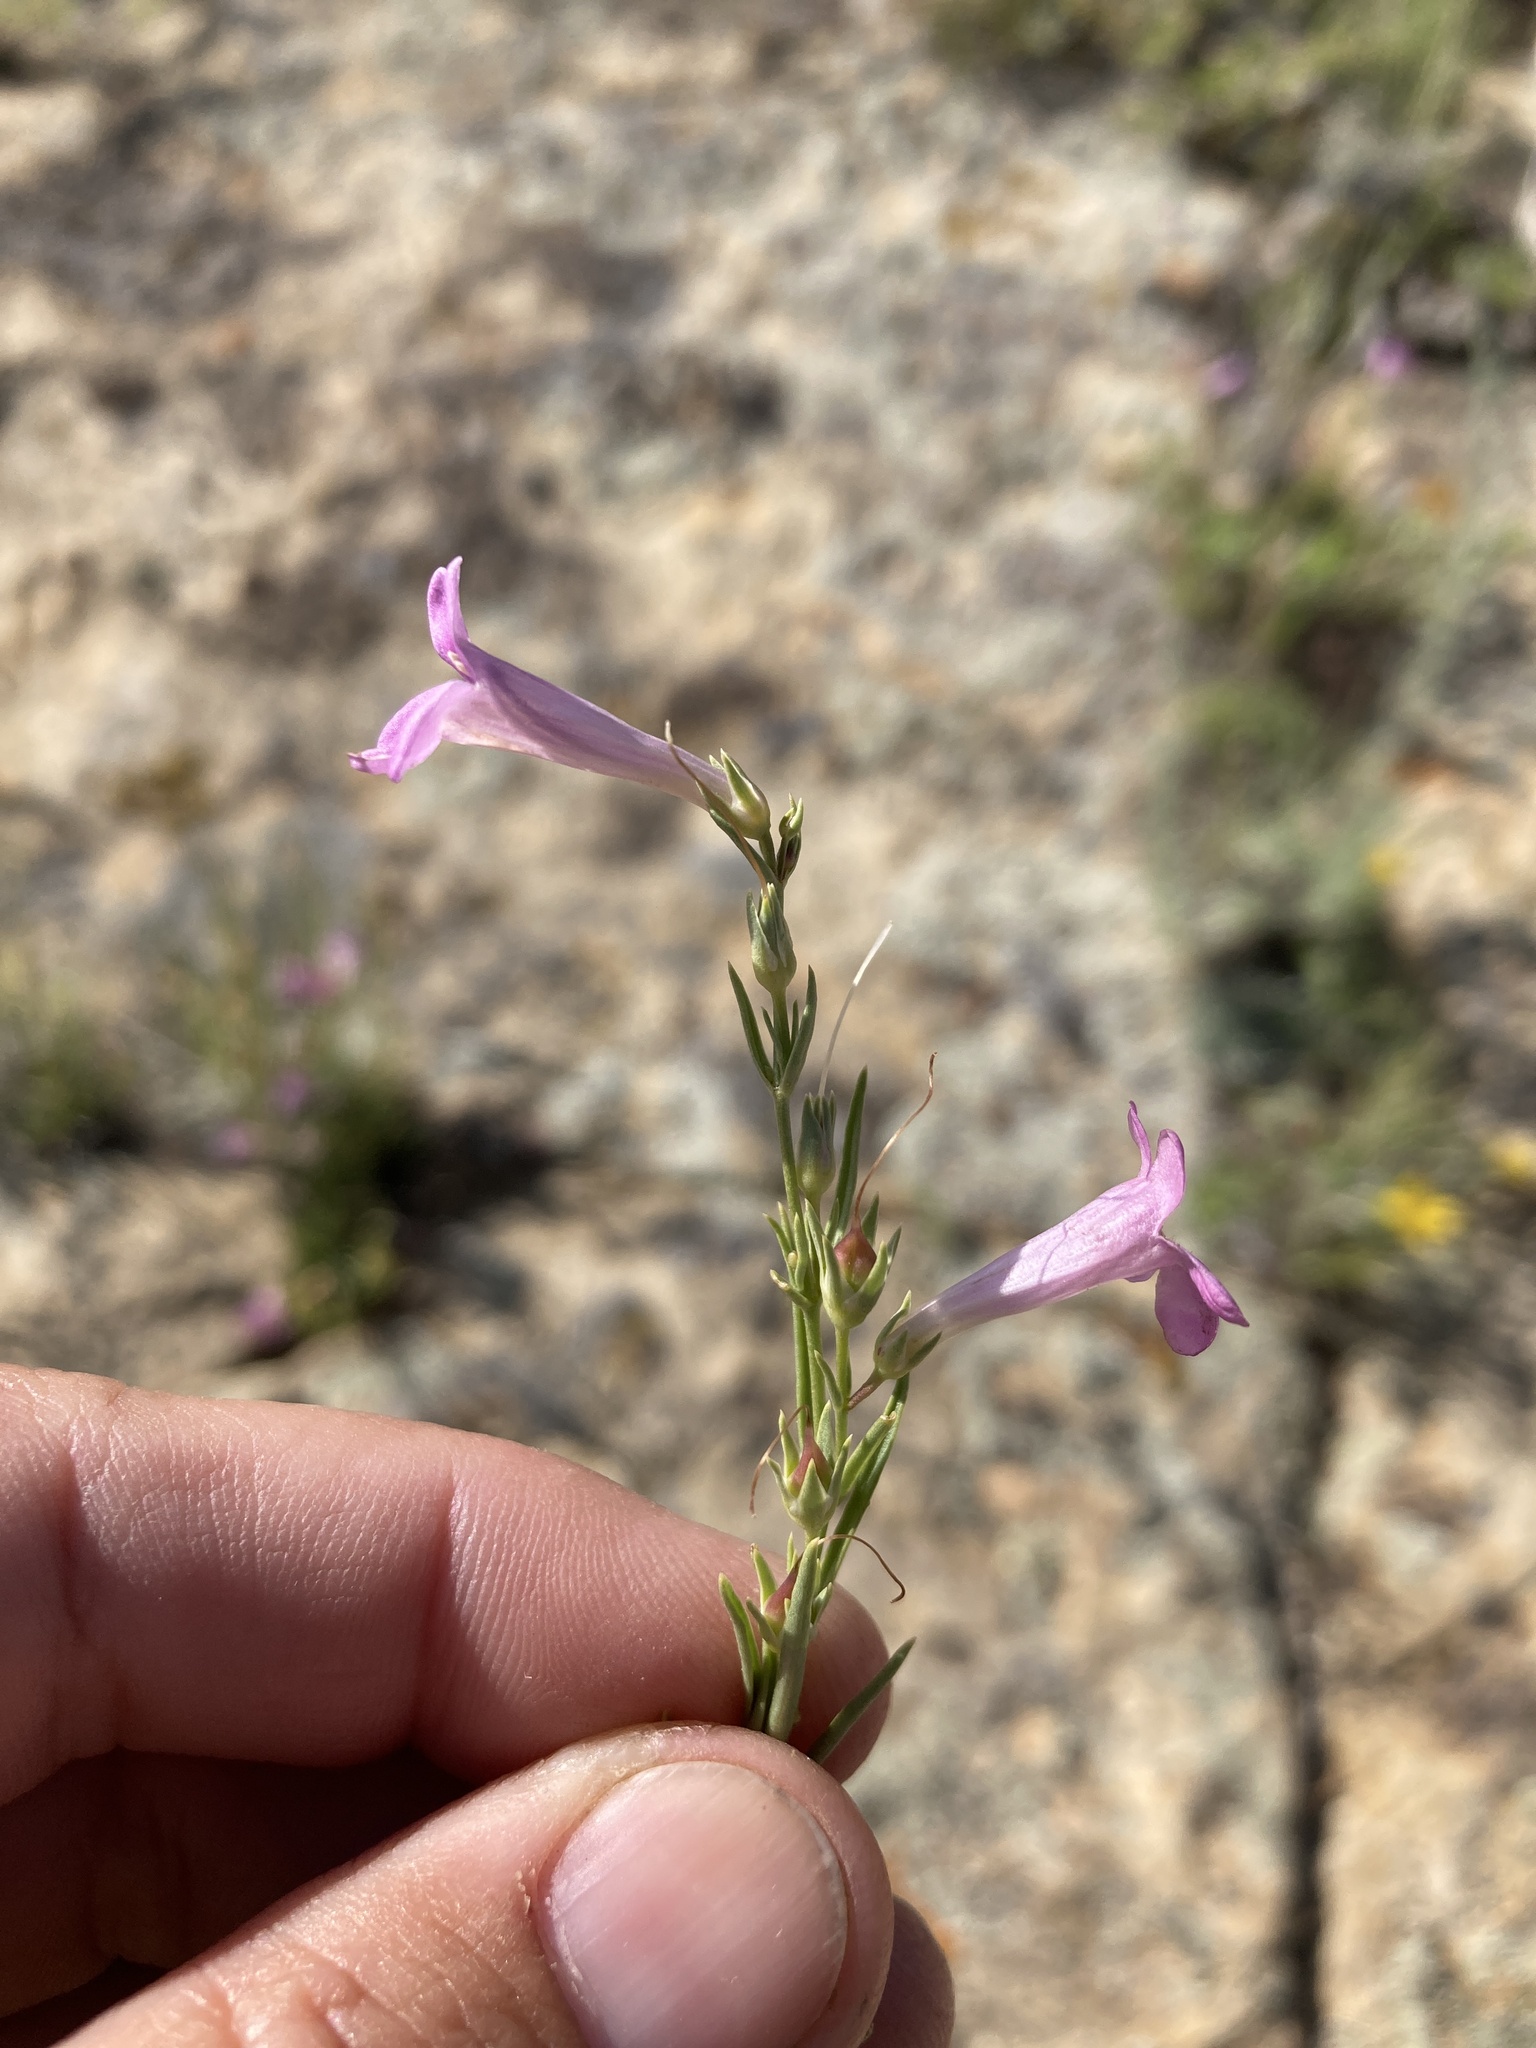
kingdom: Plantae
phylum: Tracheophyta
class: Magnoliopsida
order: Lamiales
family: Plantaginaceae
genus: Penstemon
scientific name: Penstemon laricifolius
